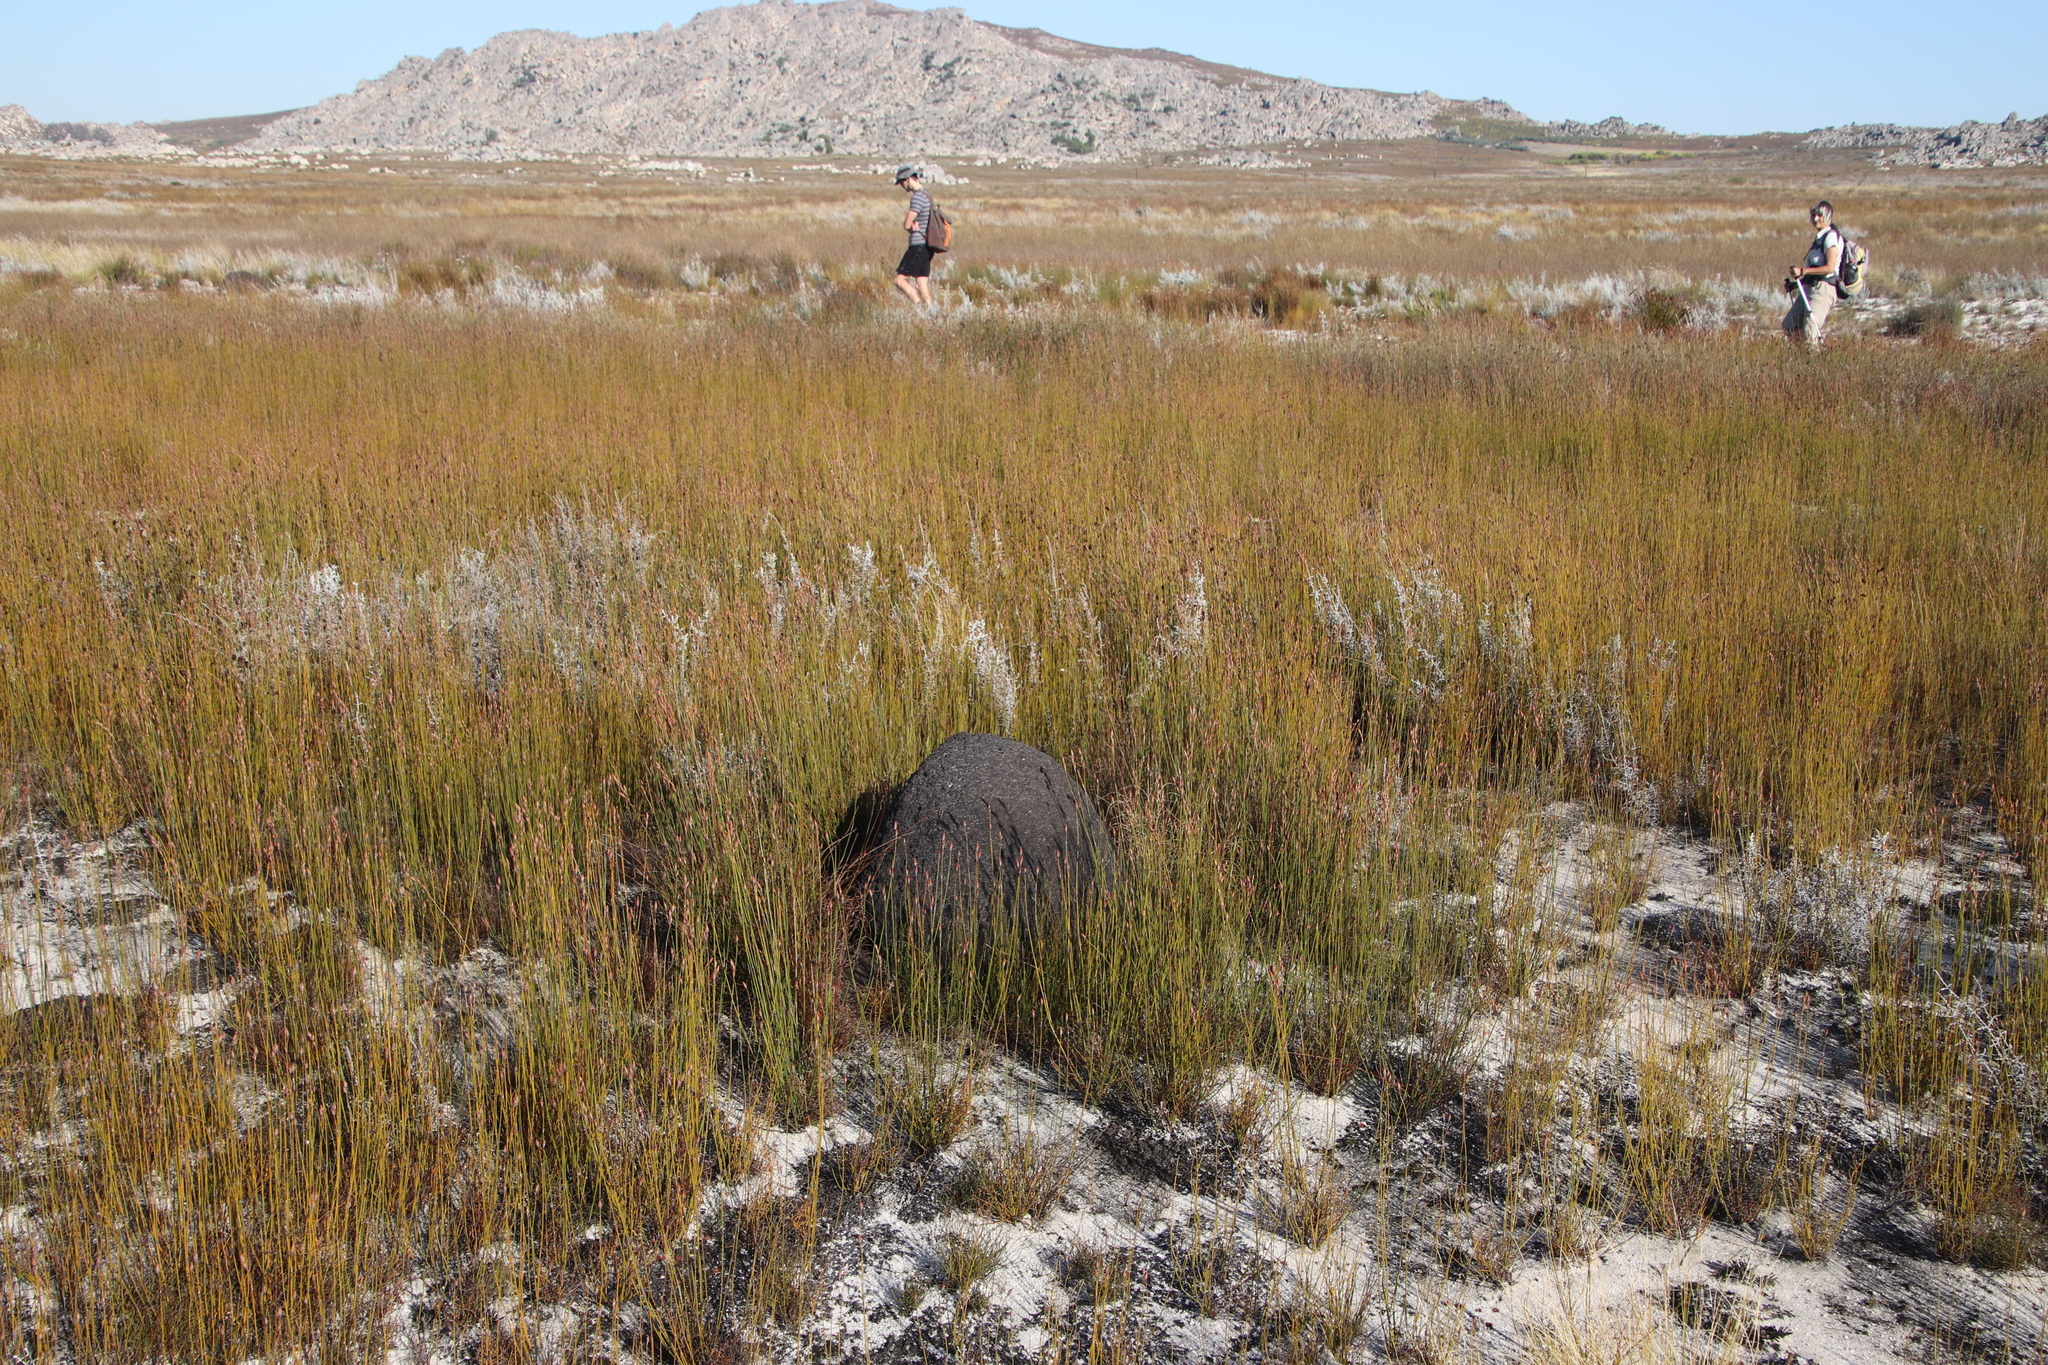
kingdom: Animalia
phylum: Arthropoda
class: Insecta
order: Blattodea
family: Termitidae
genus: Amitermes
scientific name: Amitermes hastatus
